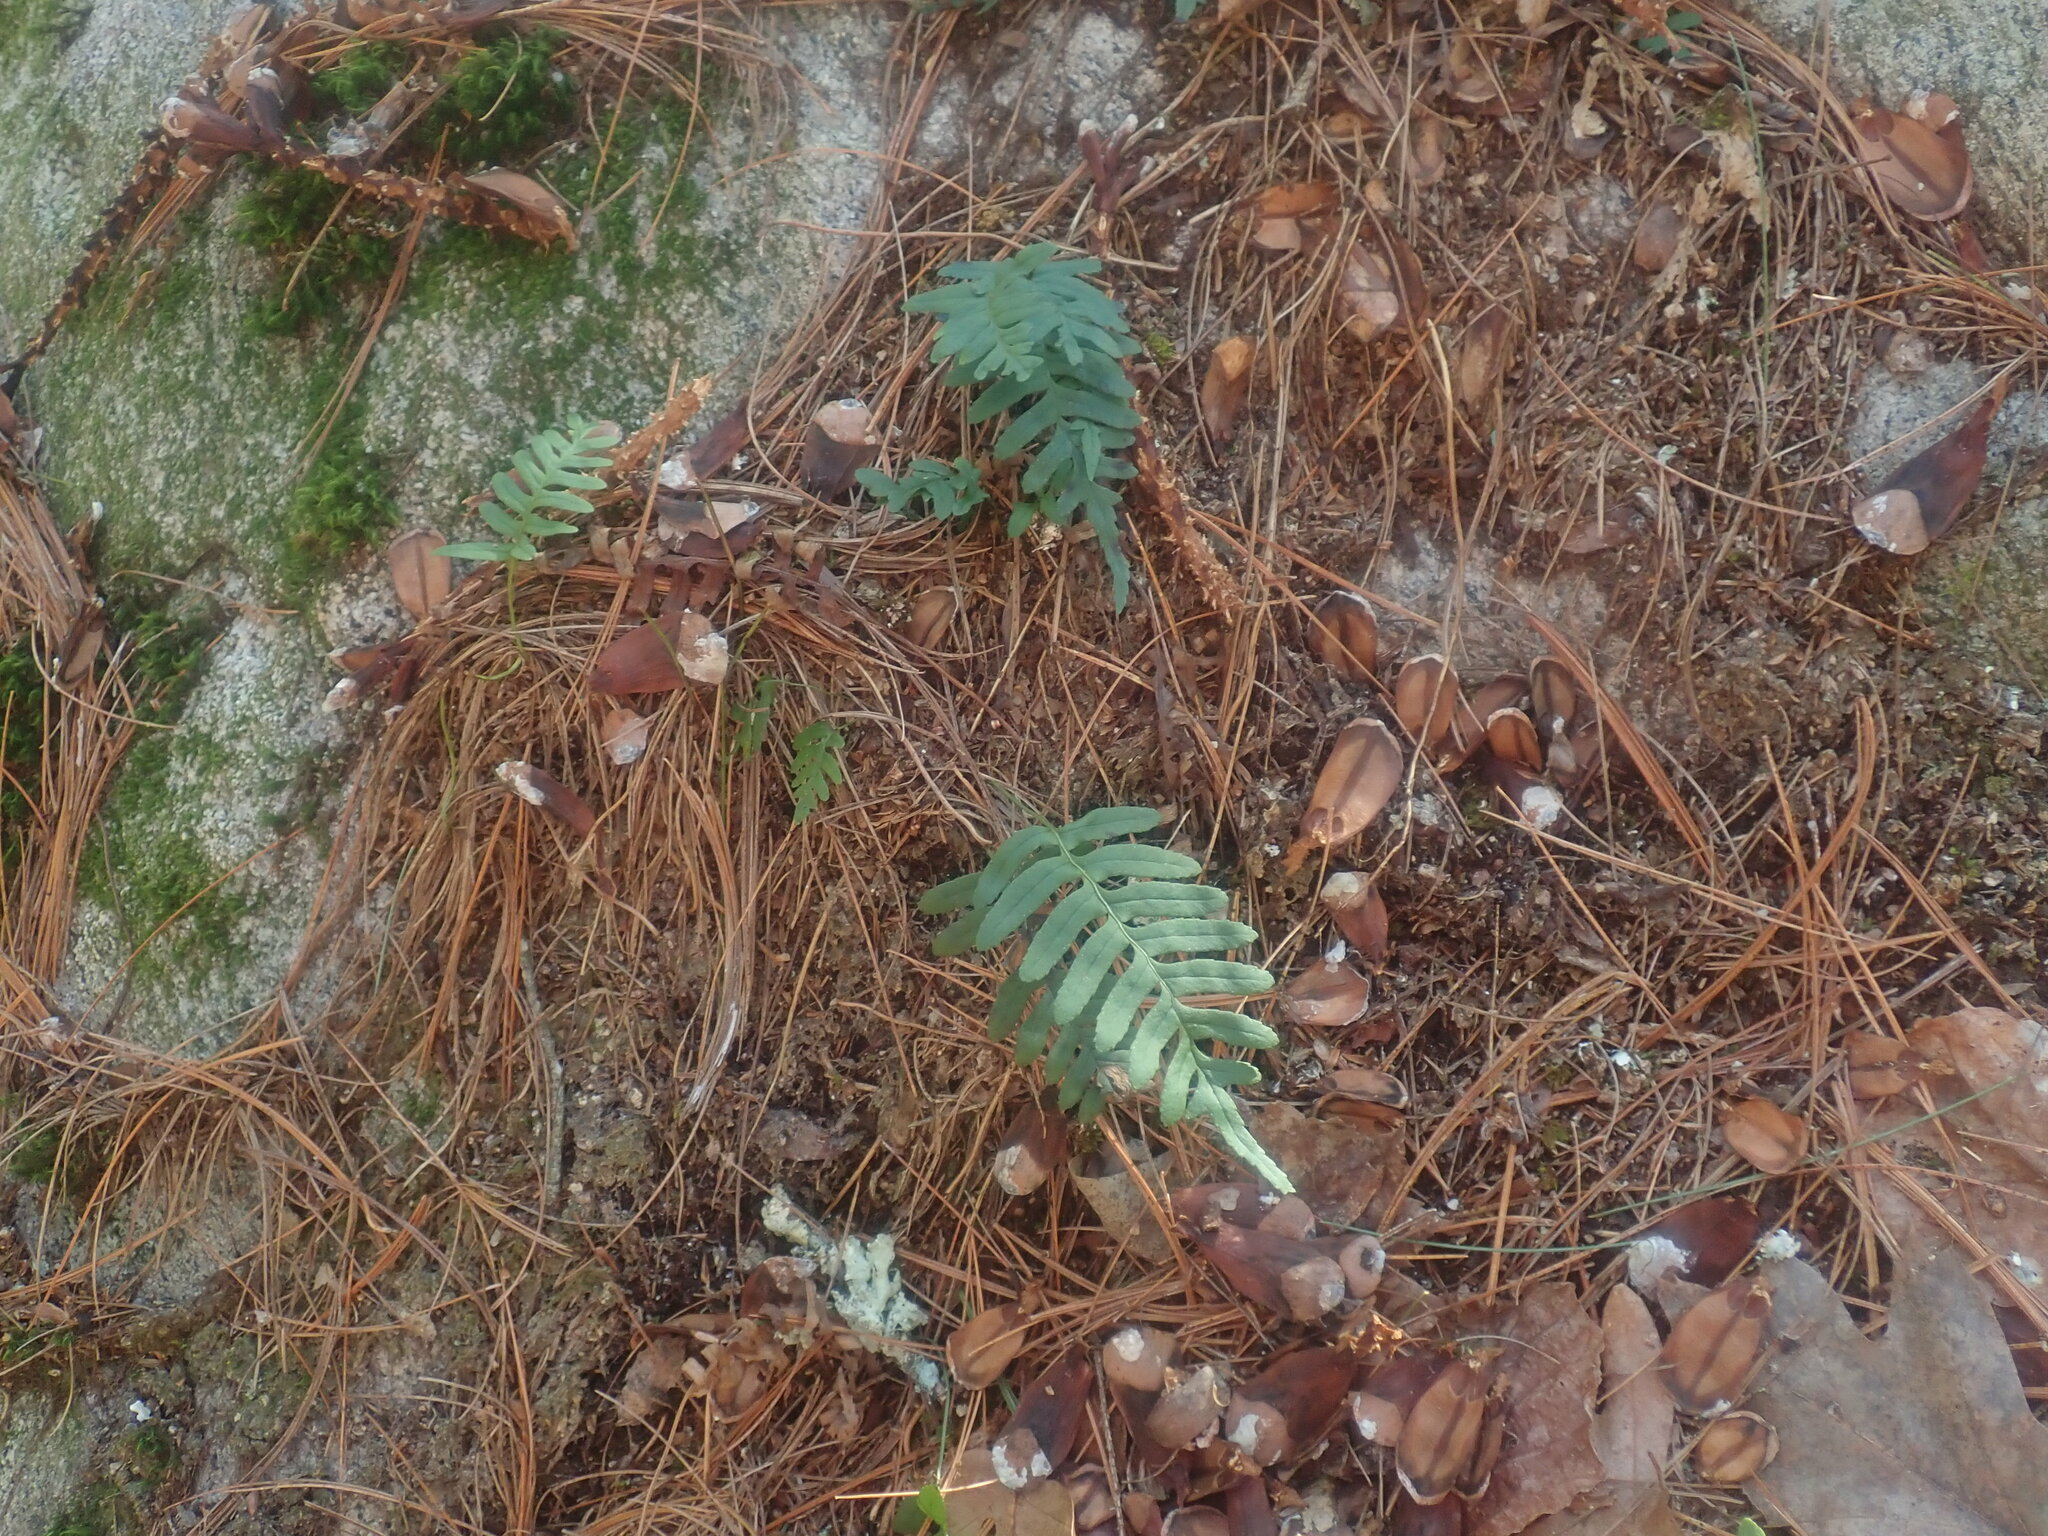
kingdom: Plantae
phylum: Tracheophyta
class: Polypodiopsida
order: Polypodiales
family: Polypodiaceae
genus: Polypodium
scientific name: Polypodium virginianum
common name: American wall fern
